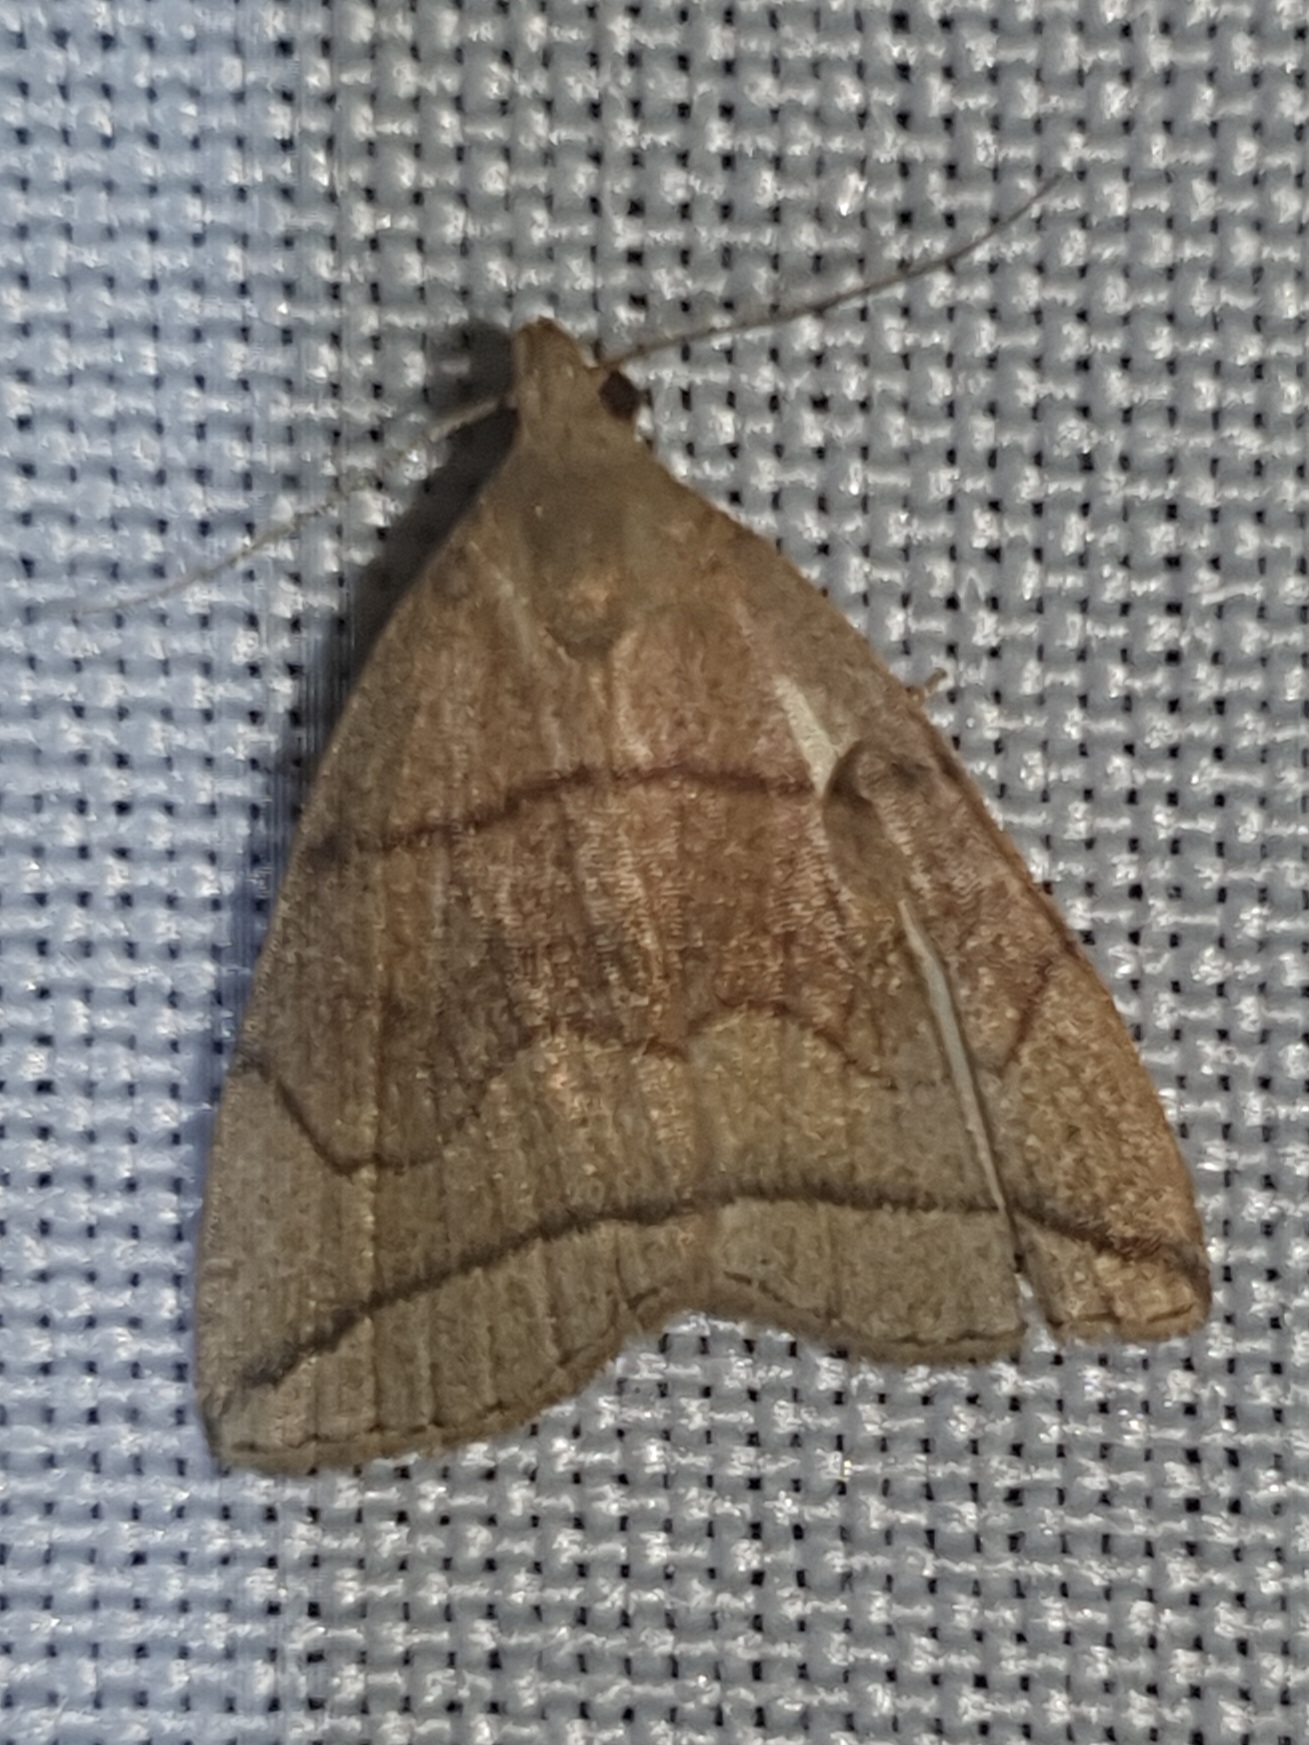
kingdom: Animalia
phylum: Arthropoda
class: Insecta
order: Lepidoptera
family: Erebidae
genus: Herminia
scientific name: Herminia grisealis
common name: Small fan-foot
